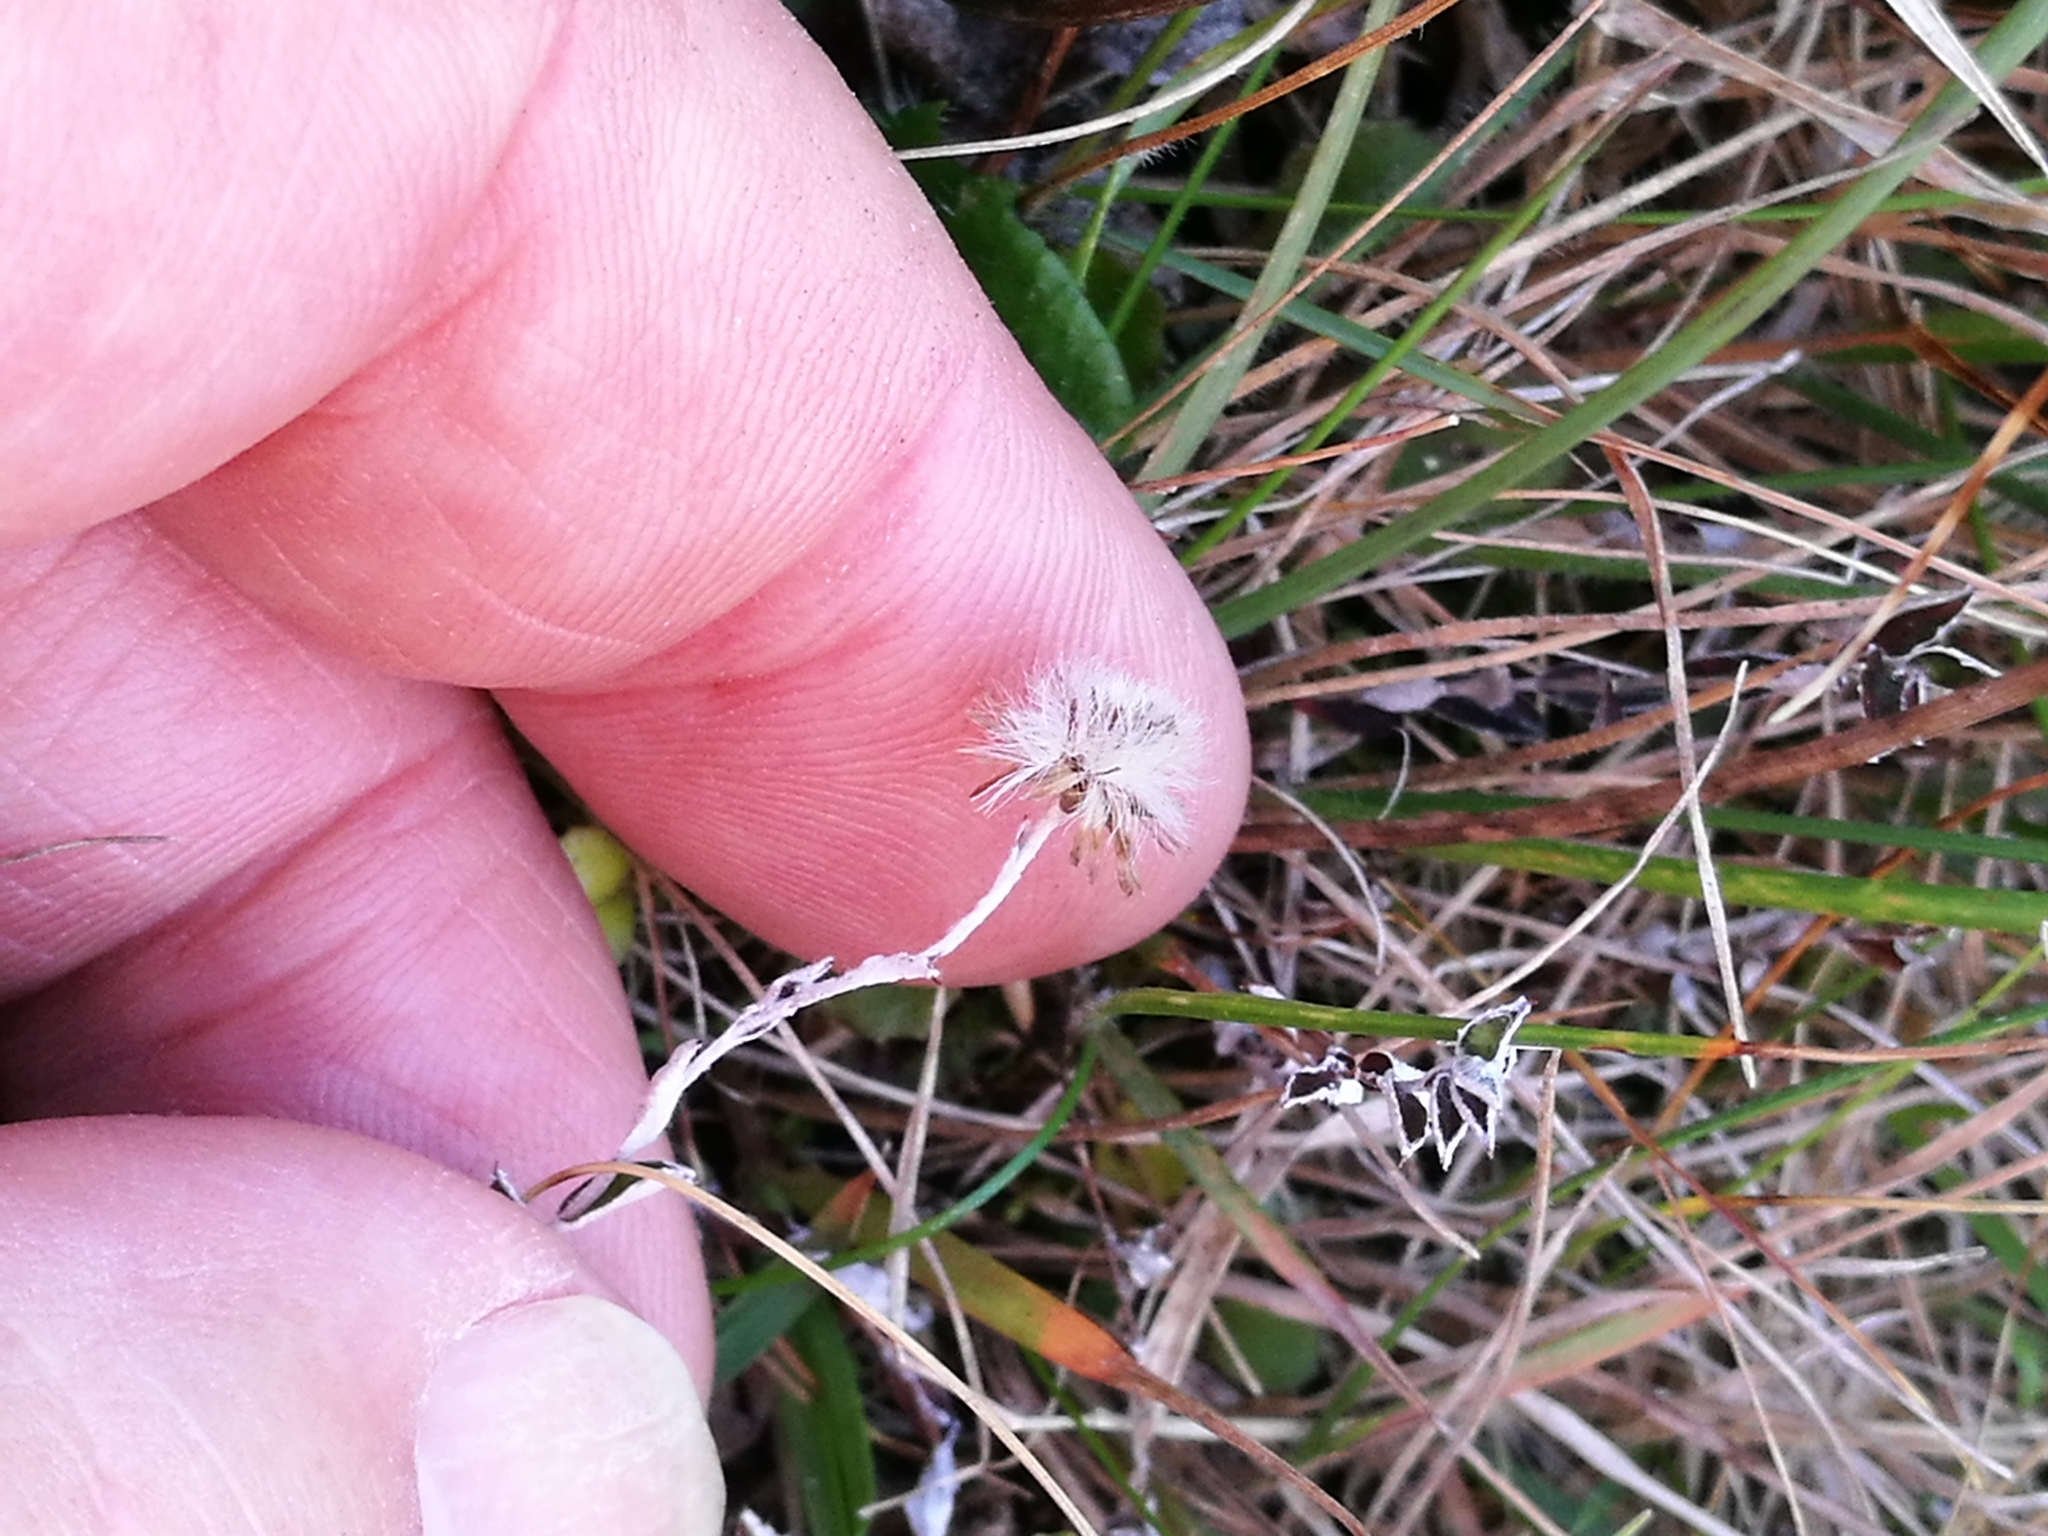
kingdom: Plantae
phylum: Tracheophyta
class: Magnoliopsida
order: Asterales
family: Asteraceae
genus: Helichrysum
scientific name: Helichrysum filicaule
